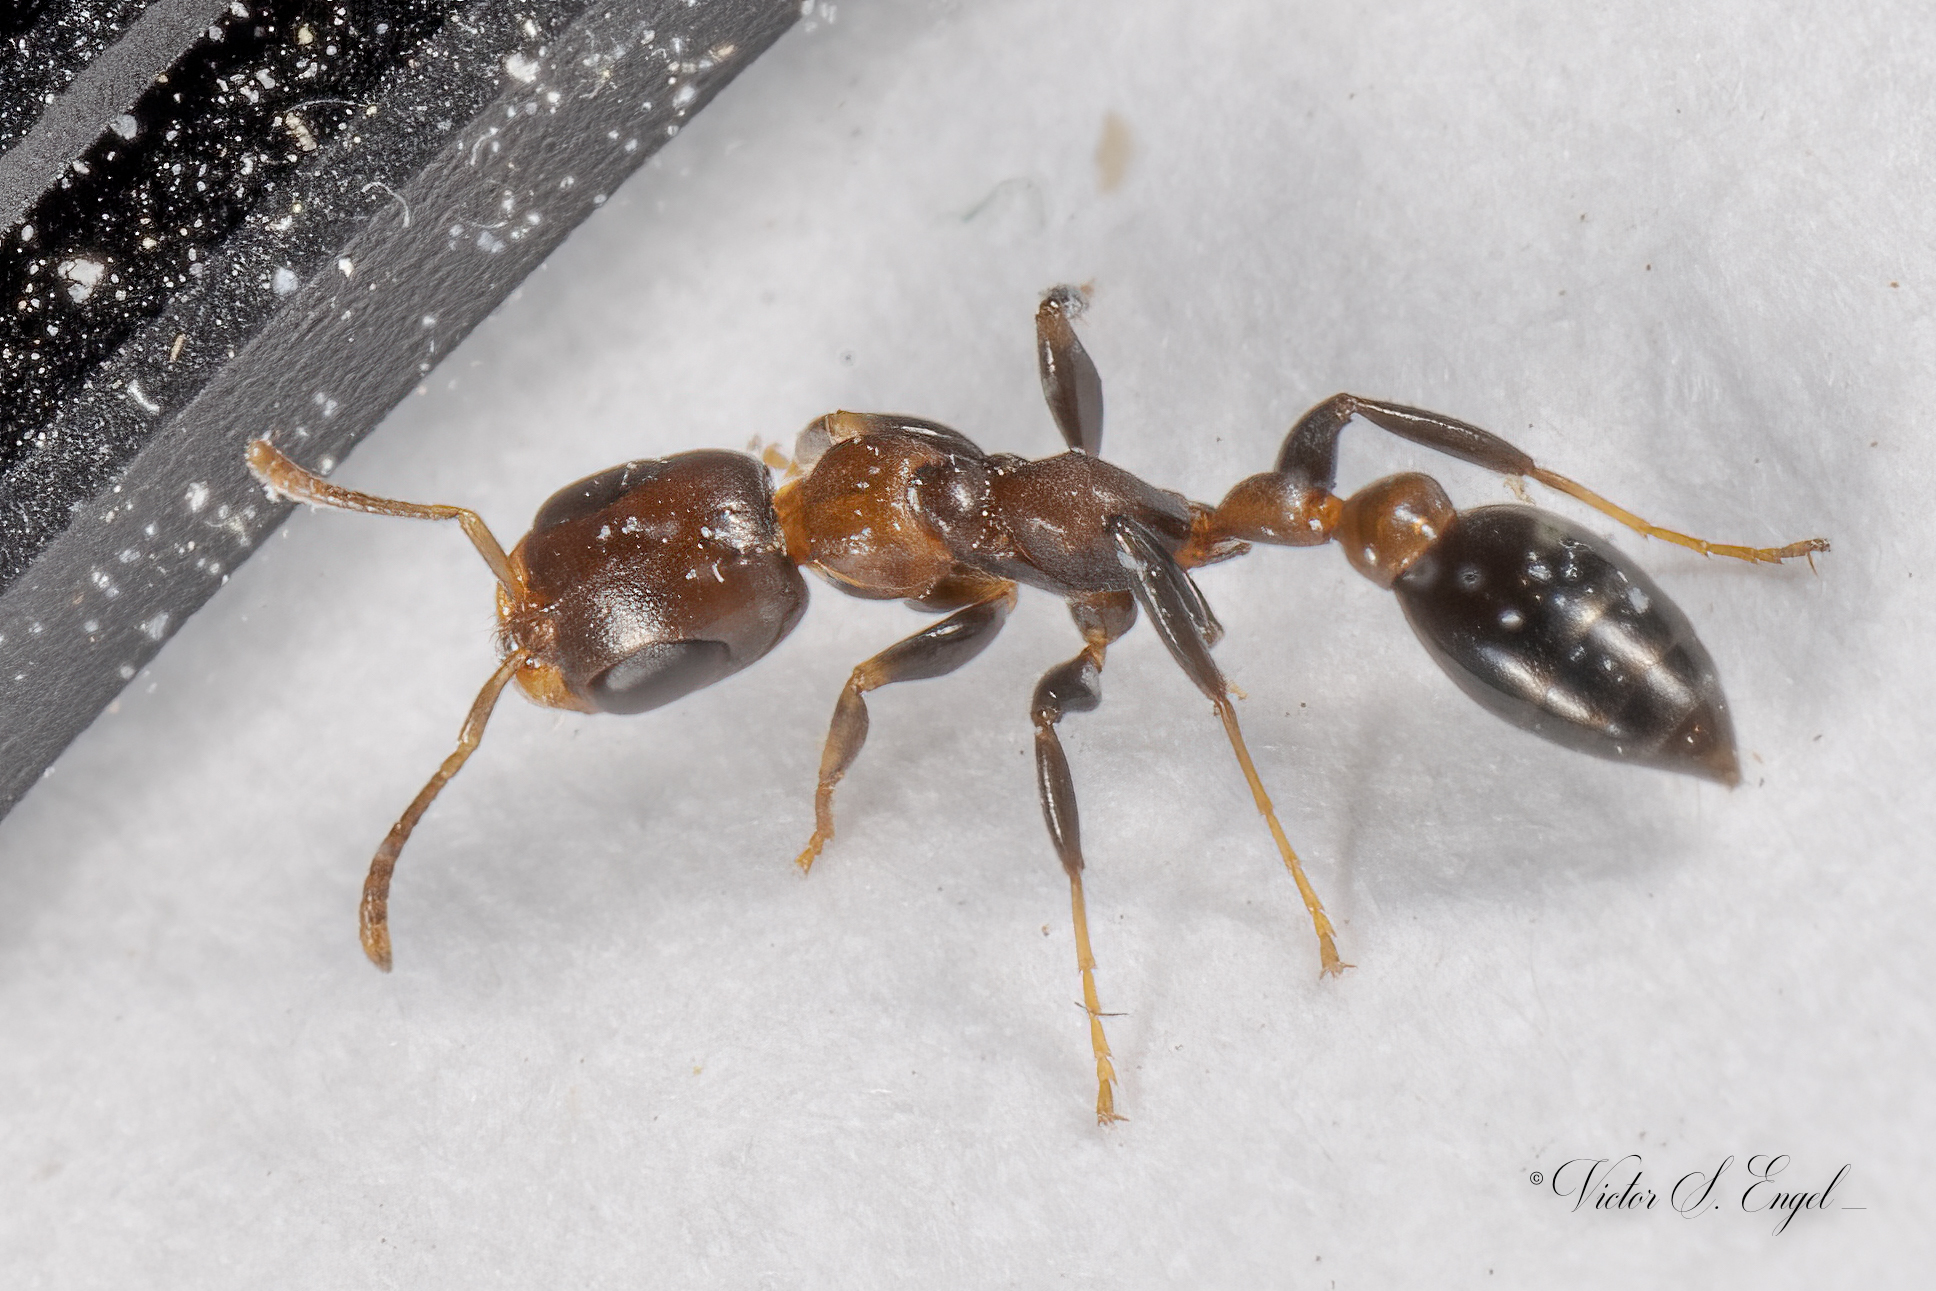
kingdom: Animalia
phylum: Arthropoda
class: Insecta
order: Hymenoptera
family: Formicidae
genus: Pseudomyrmex
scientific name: Pseudomyrmex ejectus
